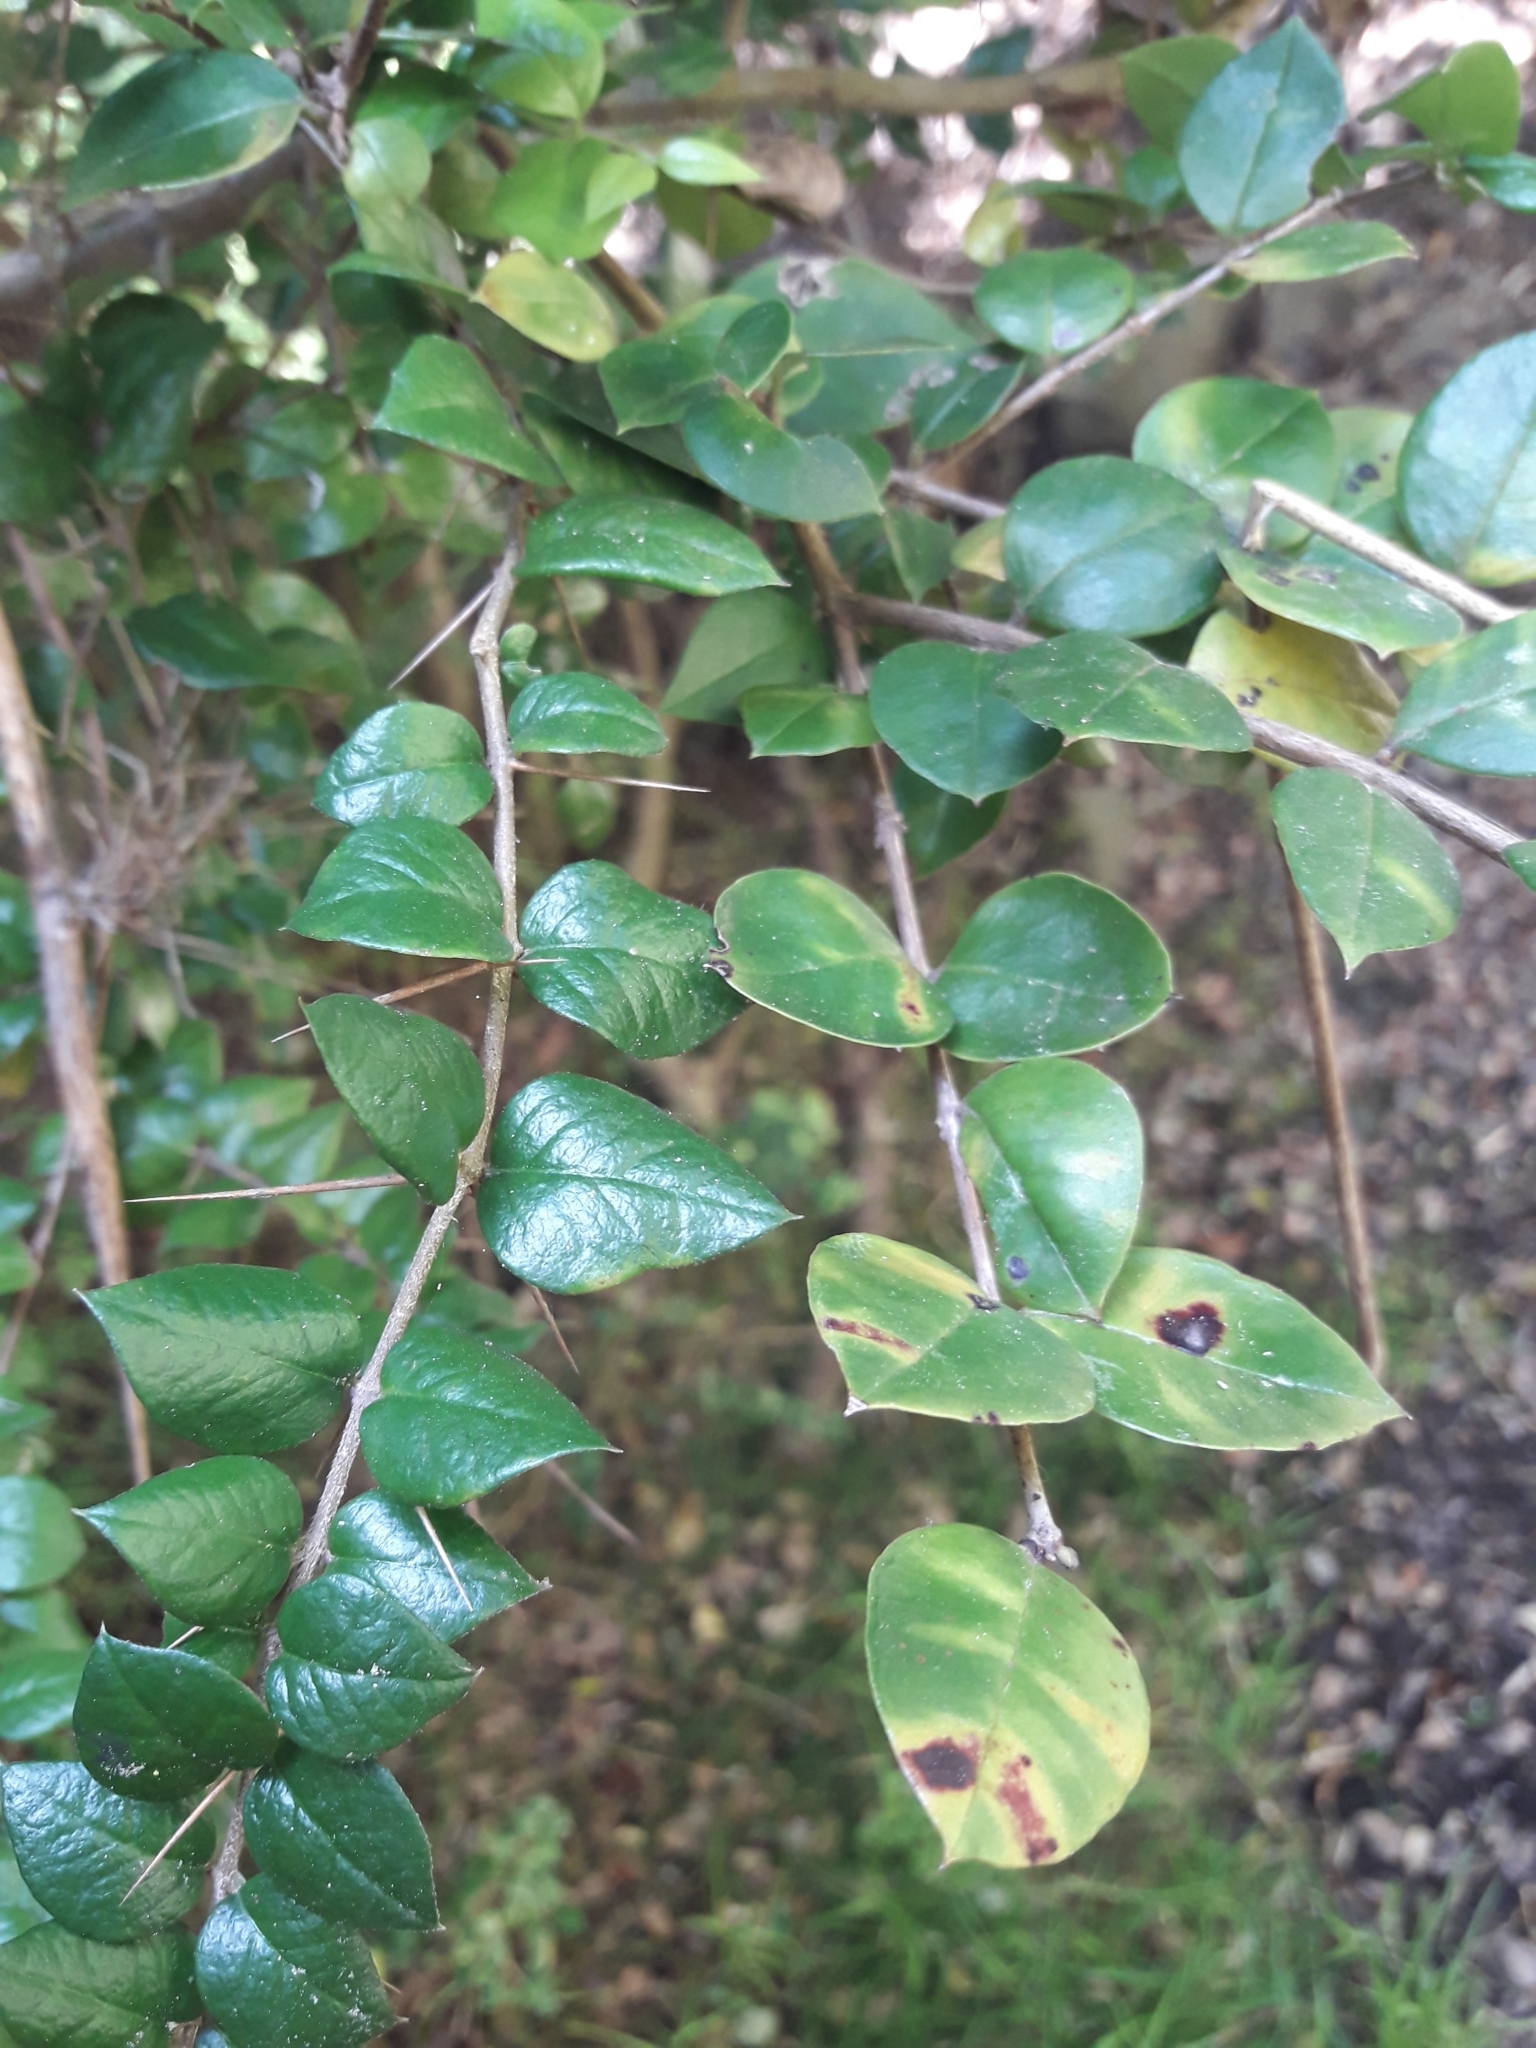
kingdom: Plantae
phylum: Tracheophyta
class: Magnoliopsida
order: Lamiales
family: Verbenaceae
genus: Rhaphithamnus
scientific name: Rhaphithamnus spinosus
